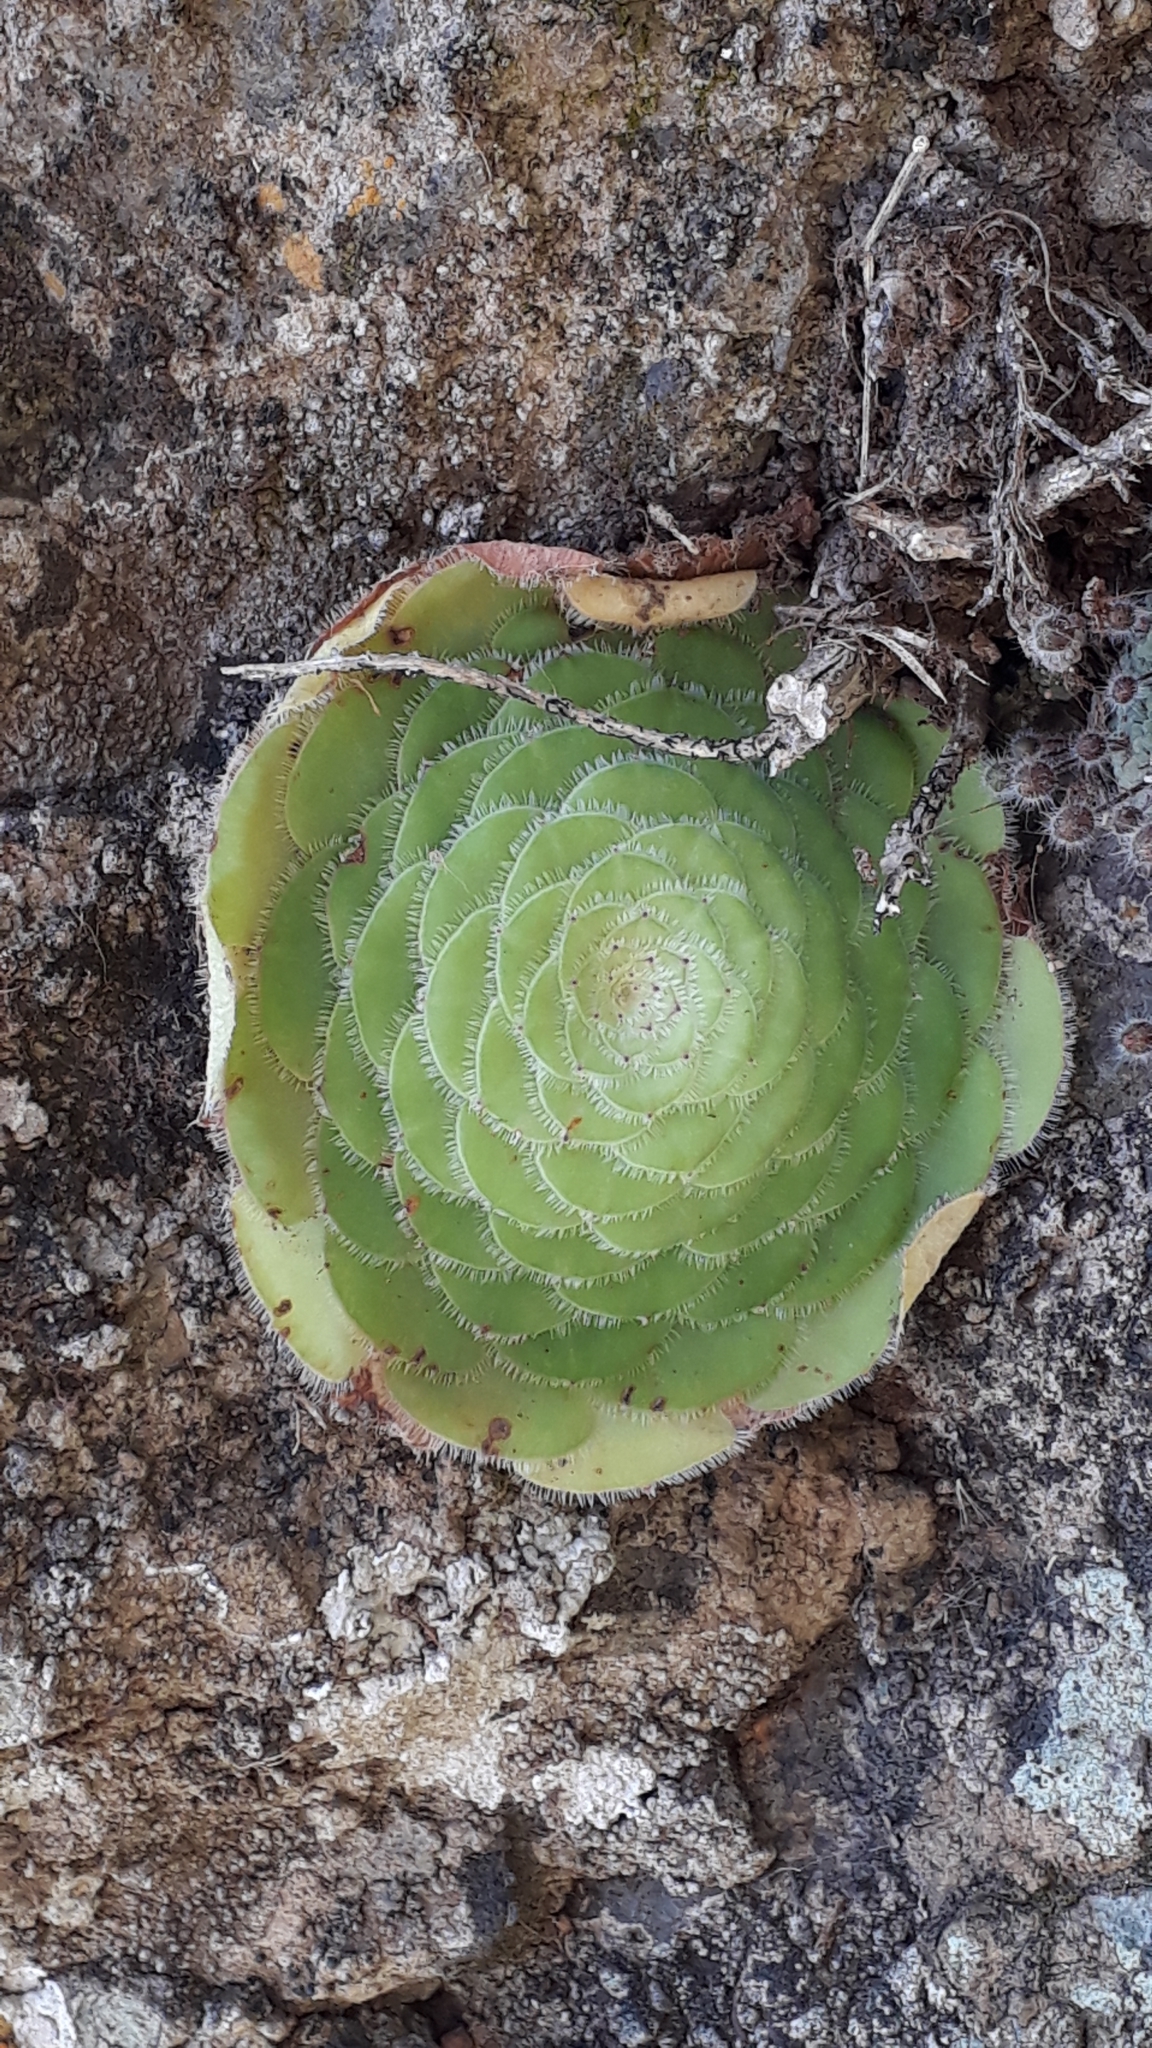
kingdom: Plantae
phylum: Tracheophyta
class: Magnoliopsida
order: Saxifragales
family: Crassulaceae
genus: Aeonium
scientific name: Aeonium tabulaeforme
